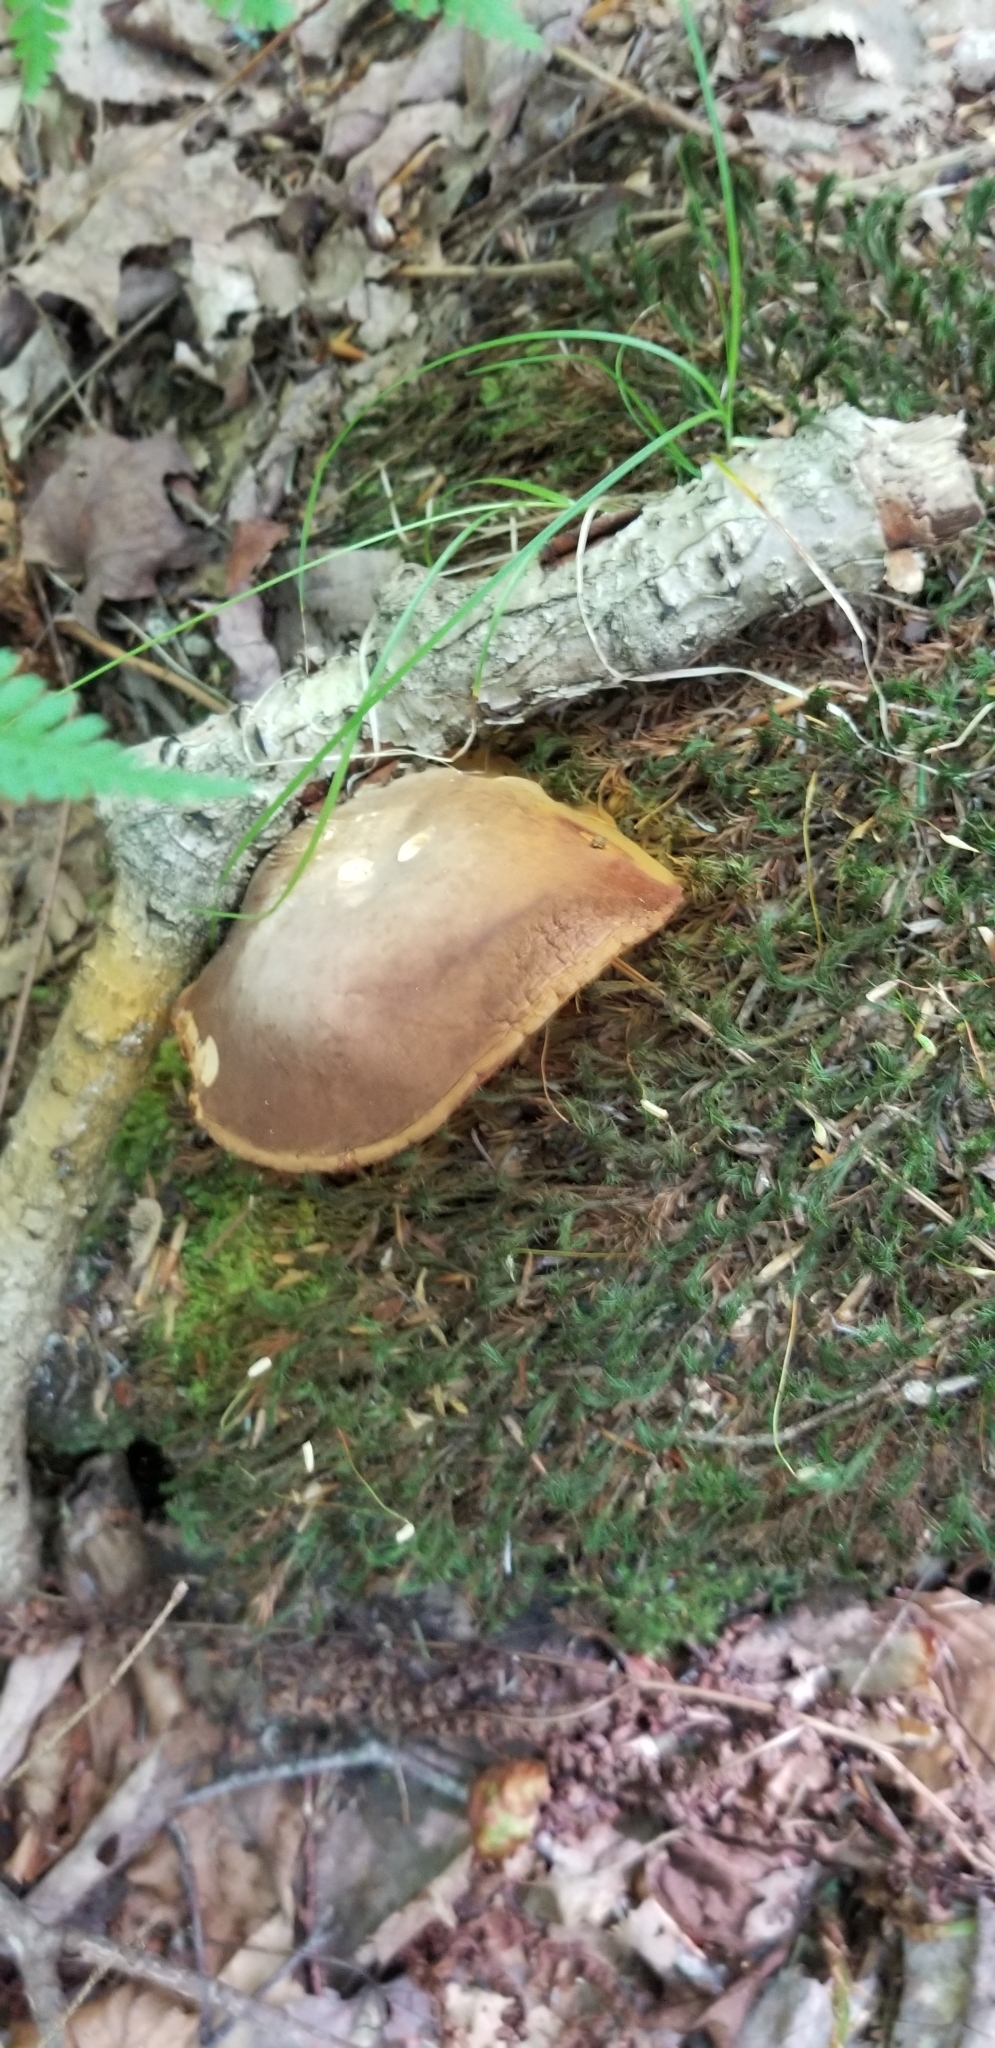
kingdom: Fungi
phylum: Basidiomycota
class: Agaricomycetes
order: Boletales
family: Boletinellaceae
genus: Boletinellus
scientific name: Boletinellus merulioides
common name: Ash tree bolete
